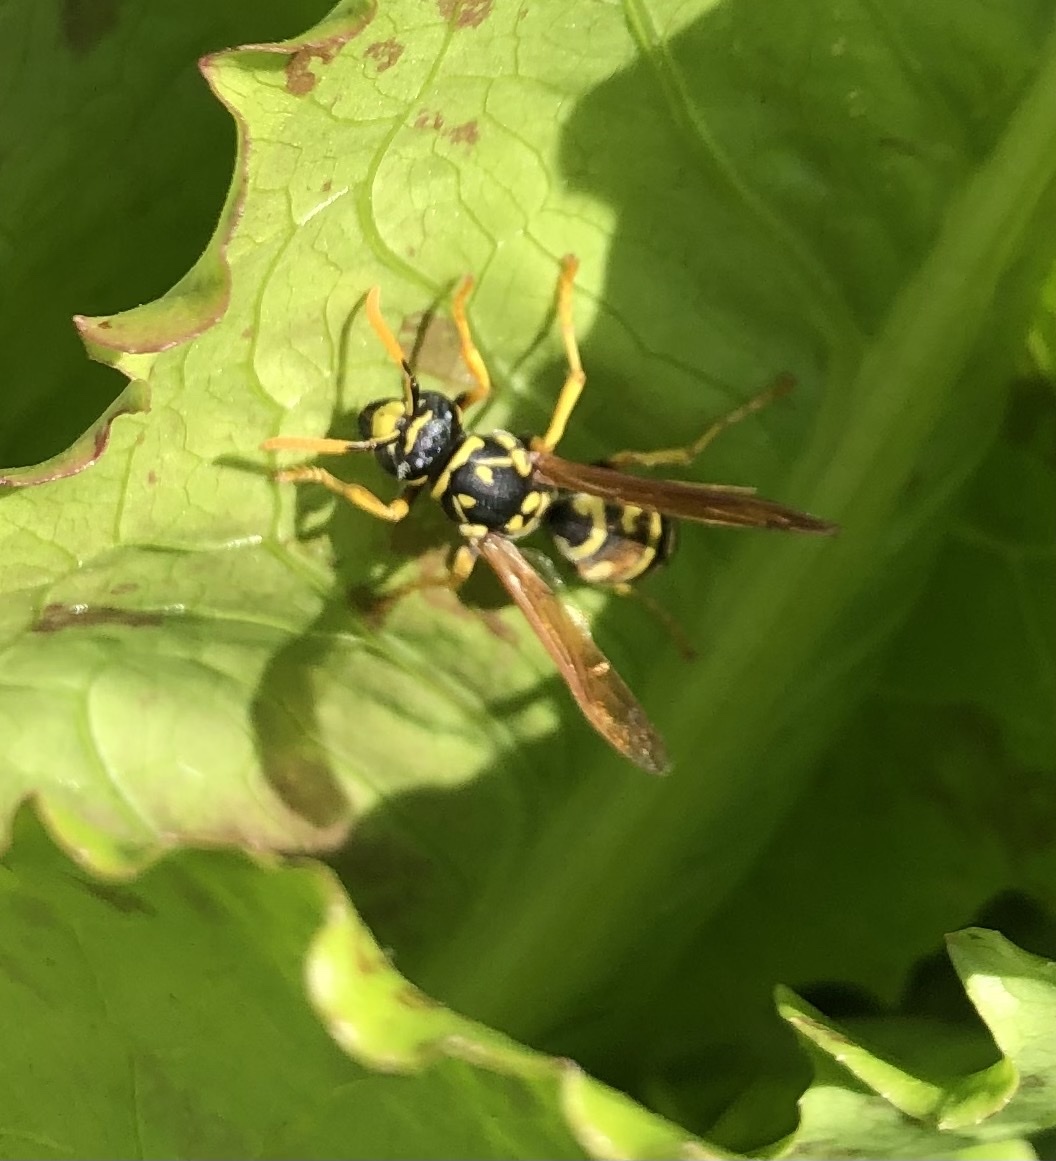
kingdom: Animalia
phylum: Arthropoda
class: Insecta
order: Hymenoptera
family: Eumenidae
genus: Polistes
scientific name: Polistes dominula
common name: Paper wasp
